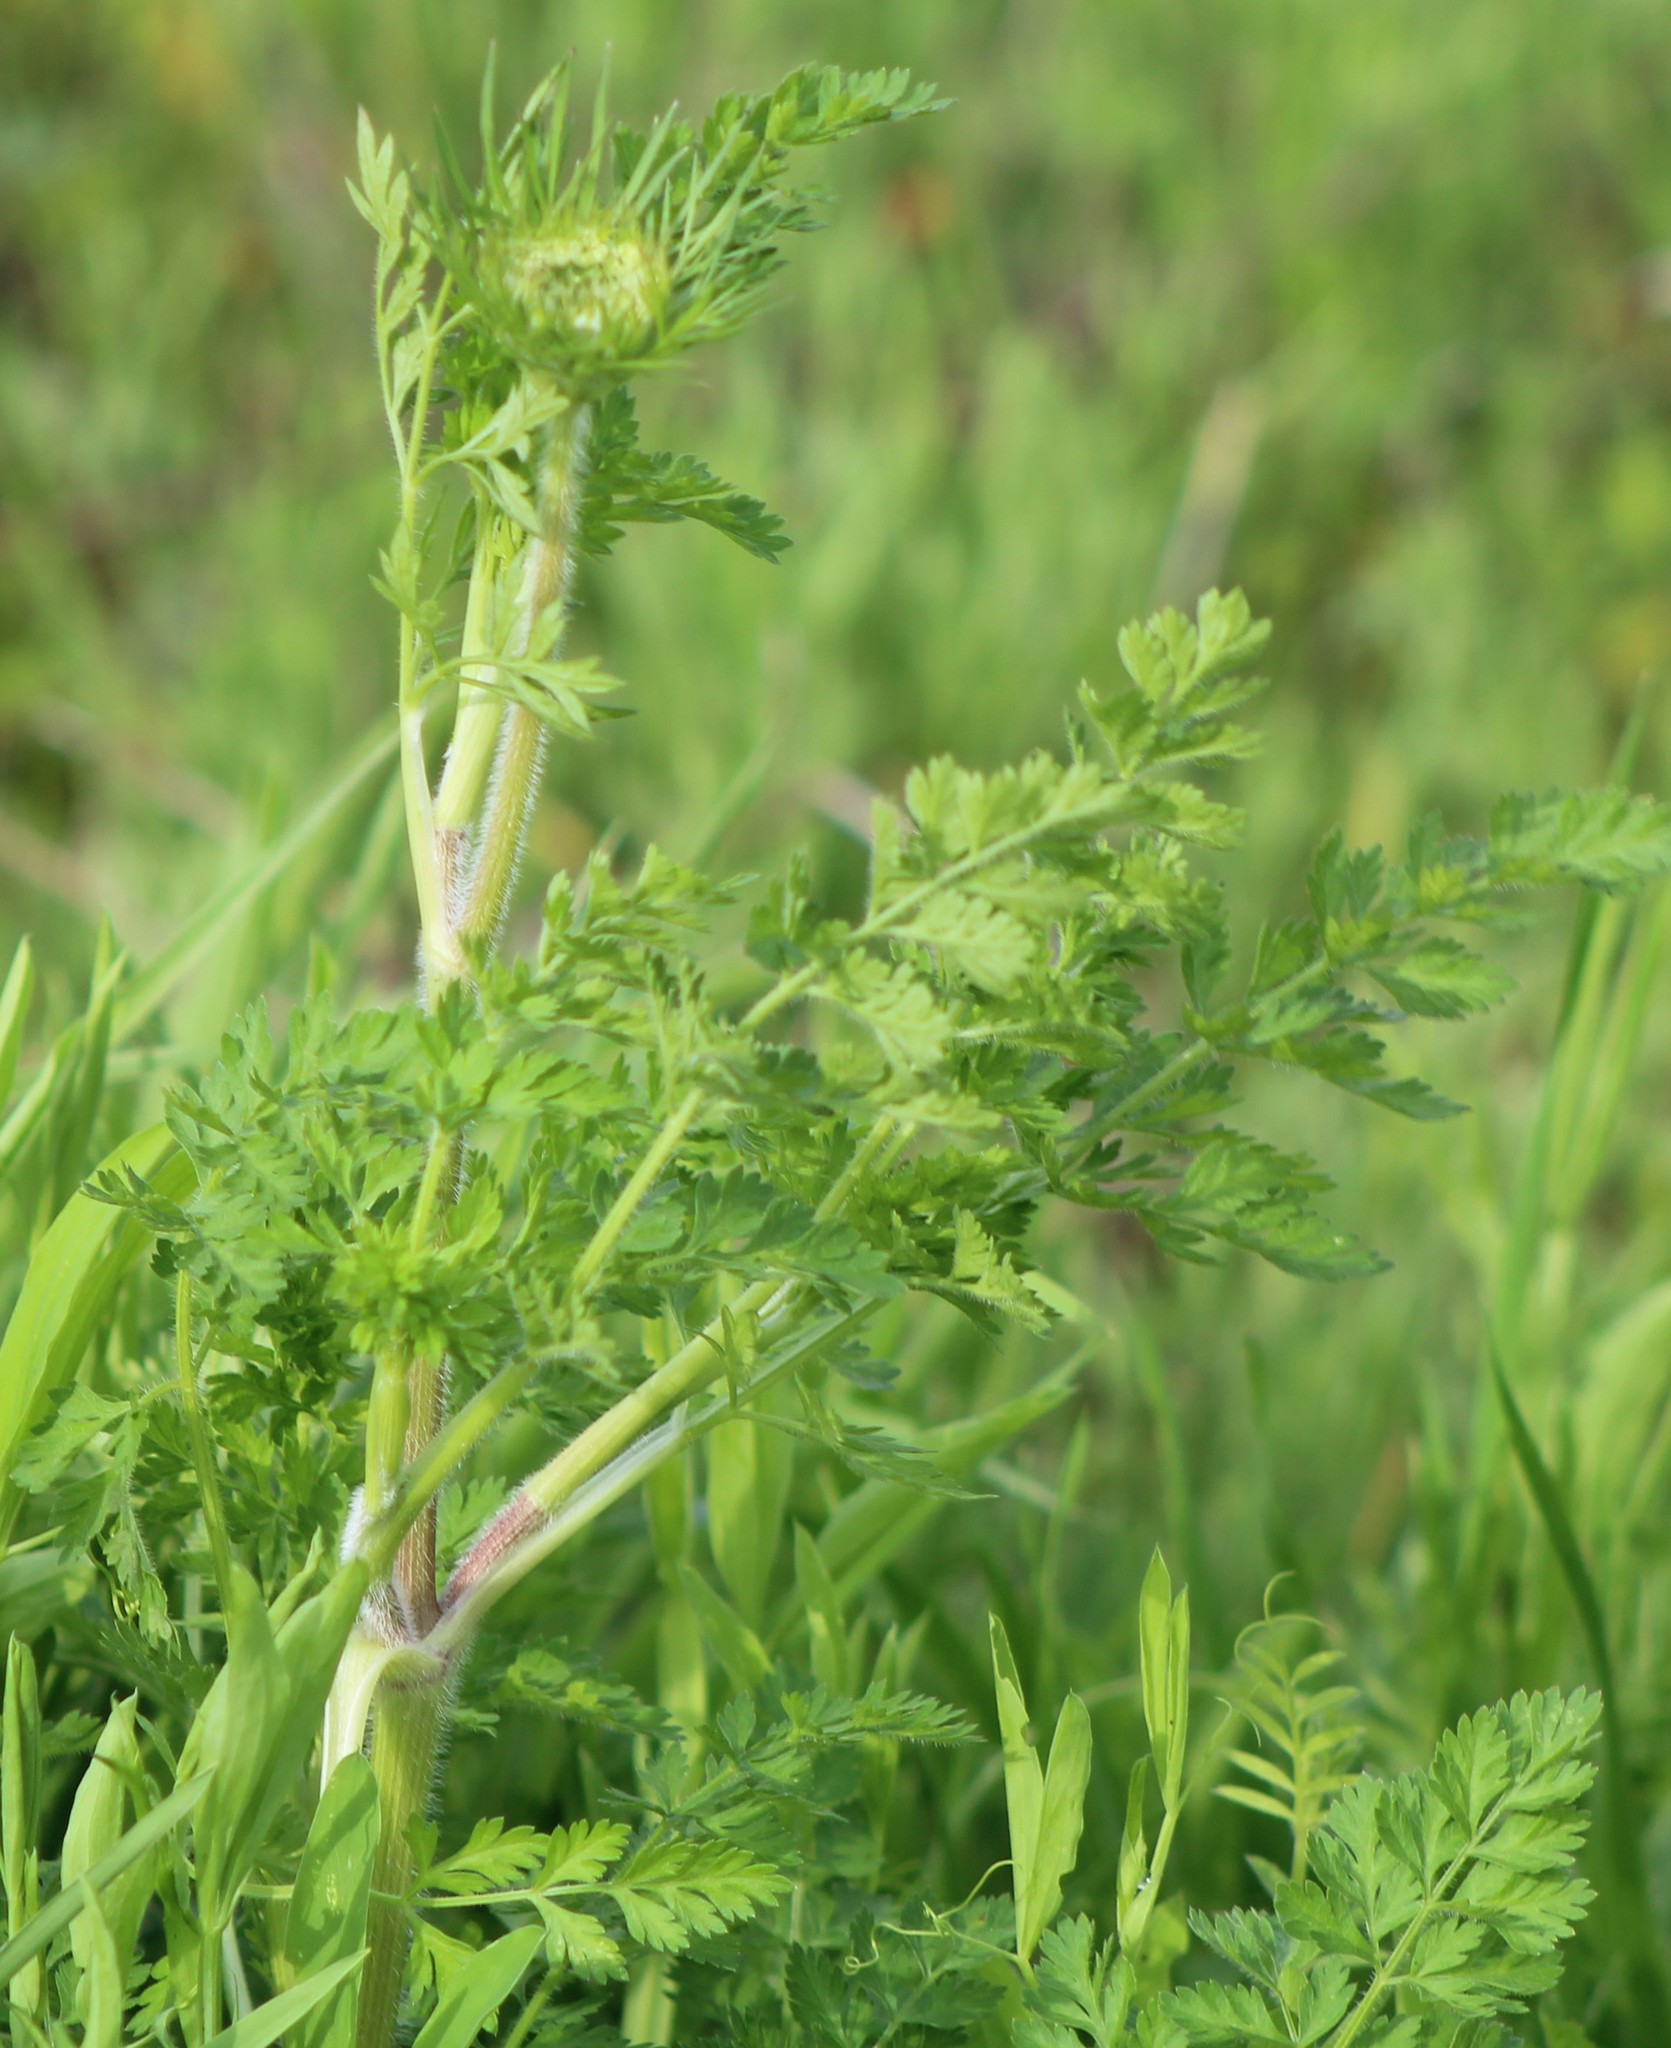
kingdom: Plantae
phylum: Tracheophyta
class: Magnoliopsida
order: Apiales
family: Apiaceae
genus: Daucus
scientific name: Daucus carota
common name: Wild carrot
